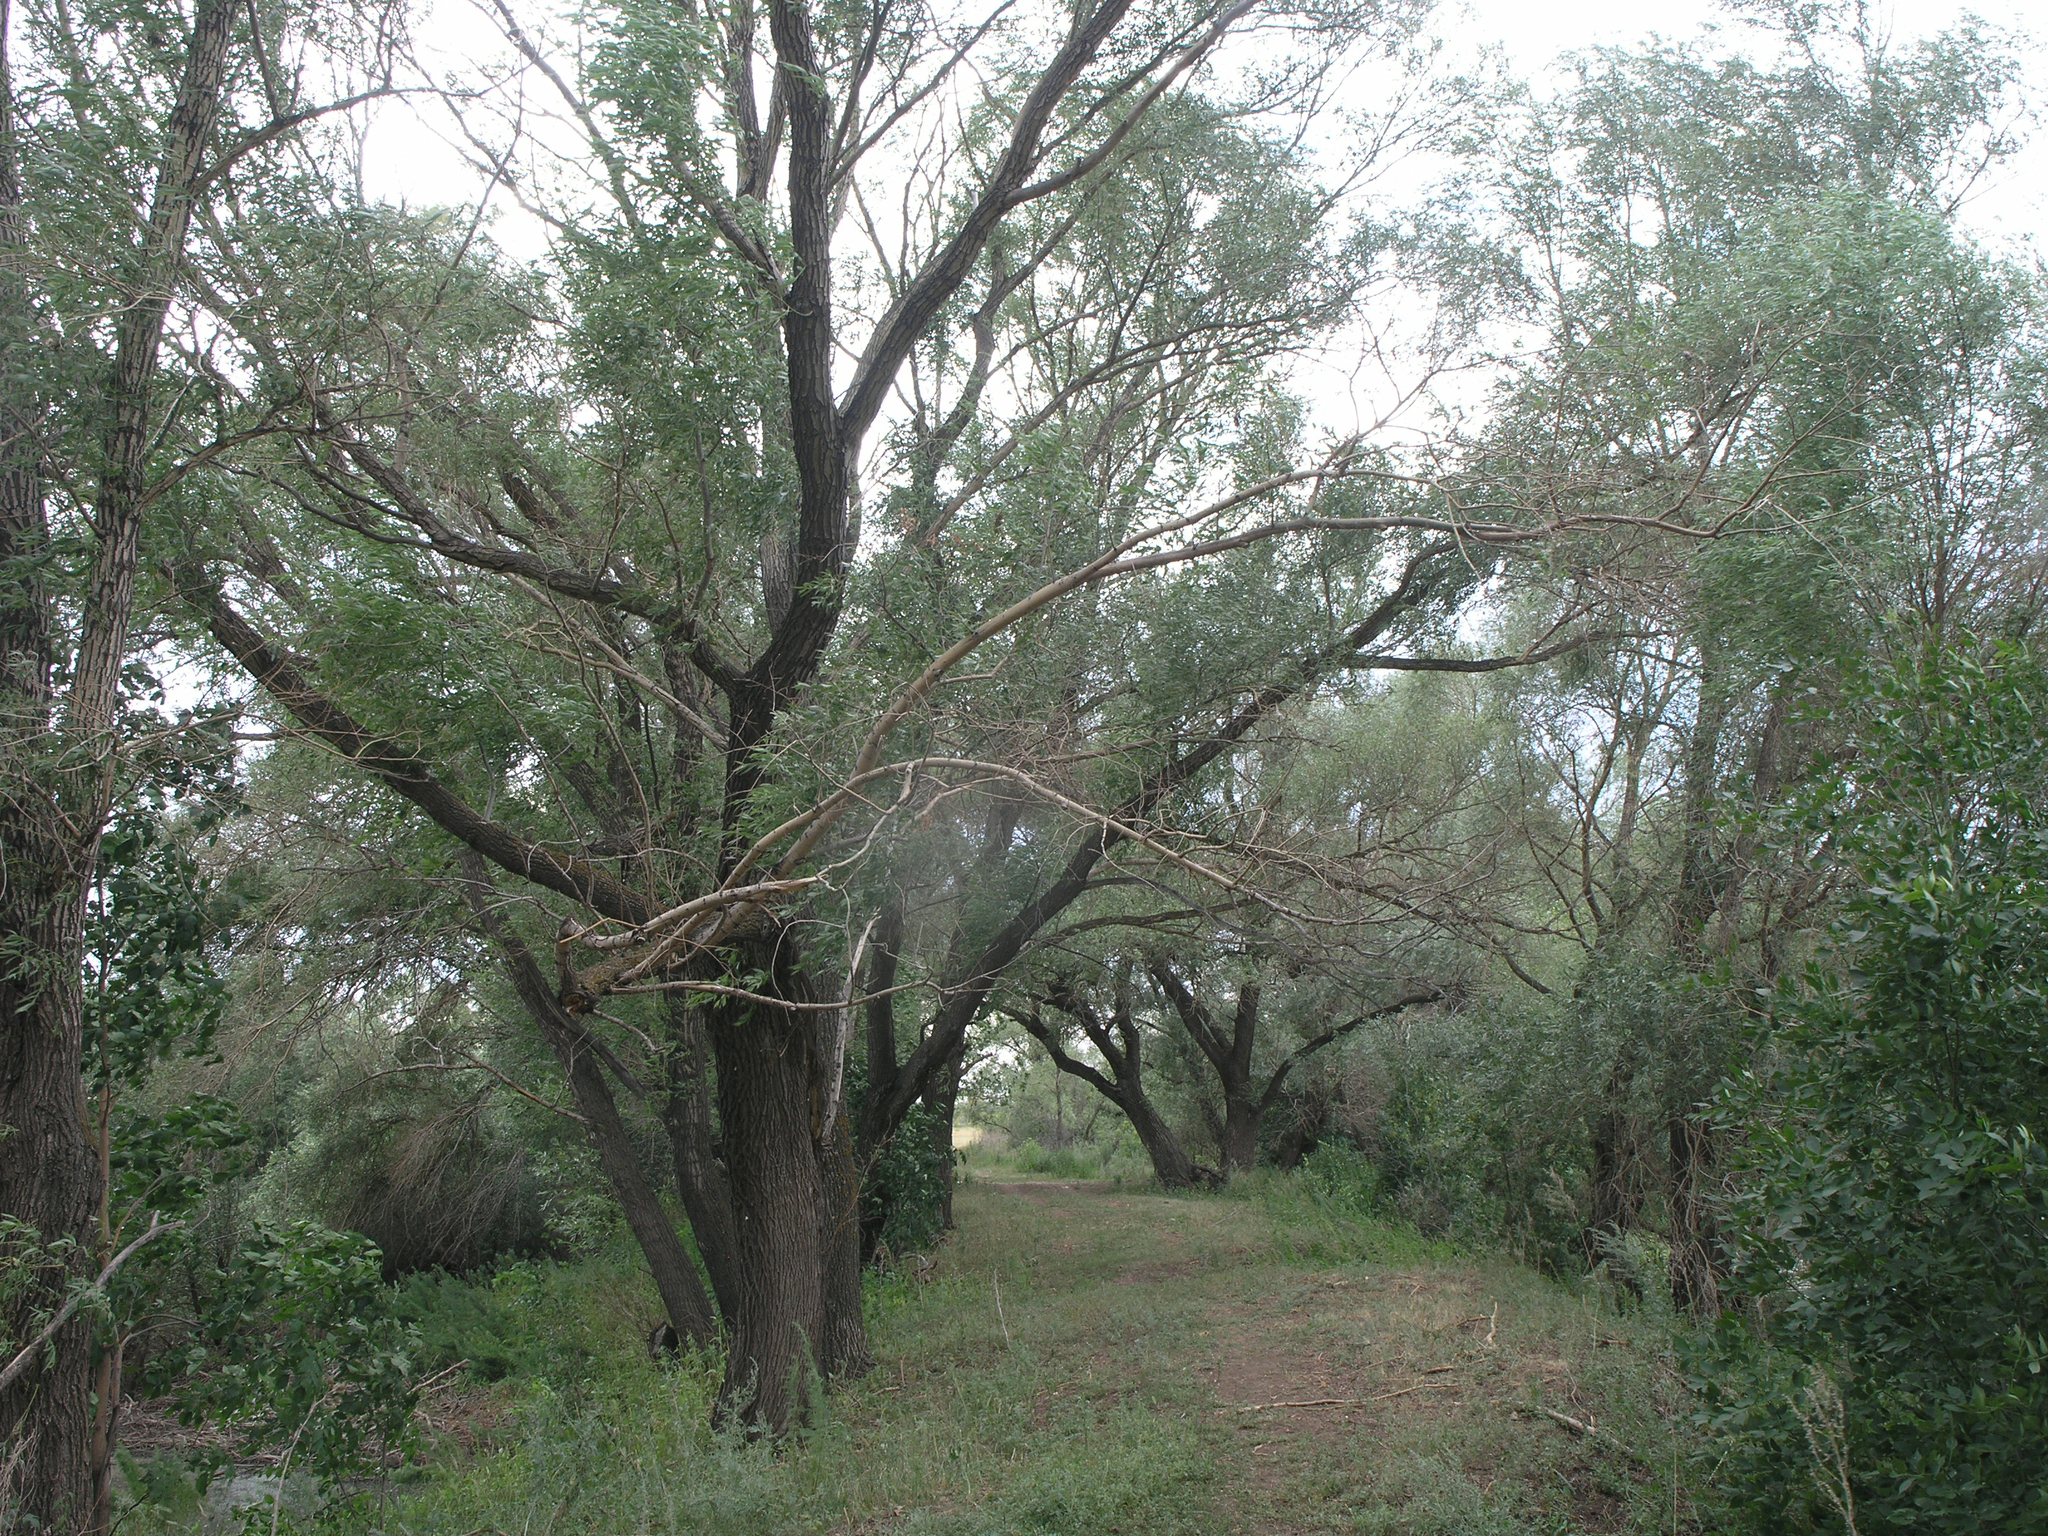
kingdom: Plantae
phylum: Tracheophyta
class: Magnoliopsida
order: Malpighiales
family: Salicaceae
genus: Salix
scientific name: Salix alba
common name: White willow
